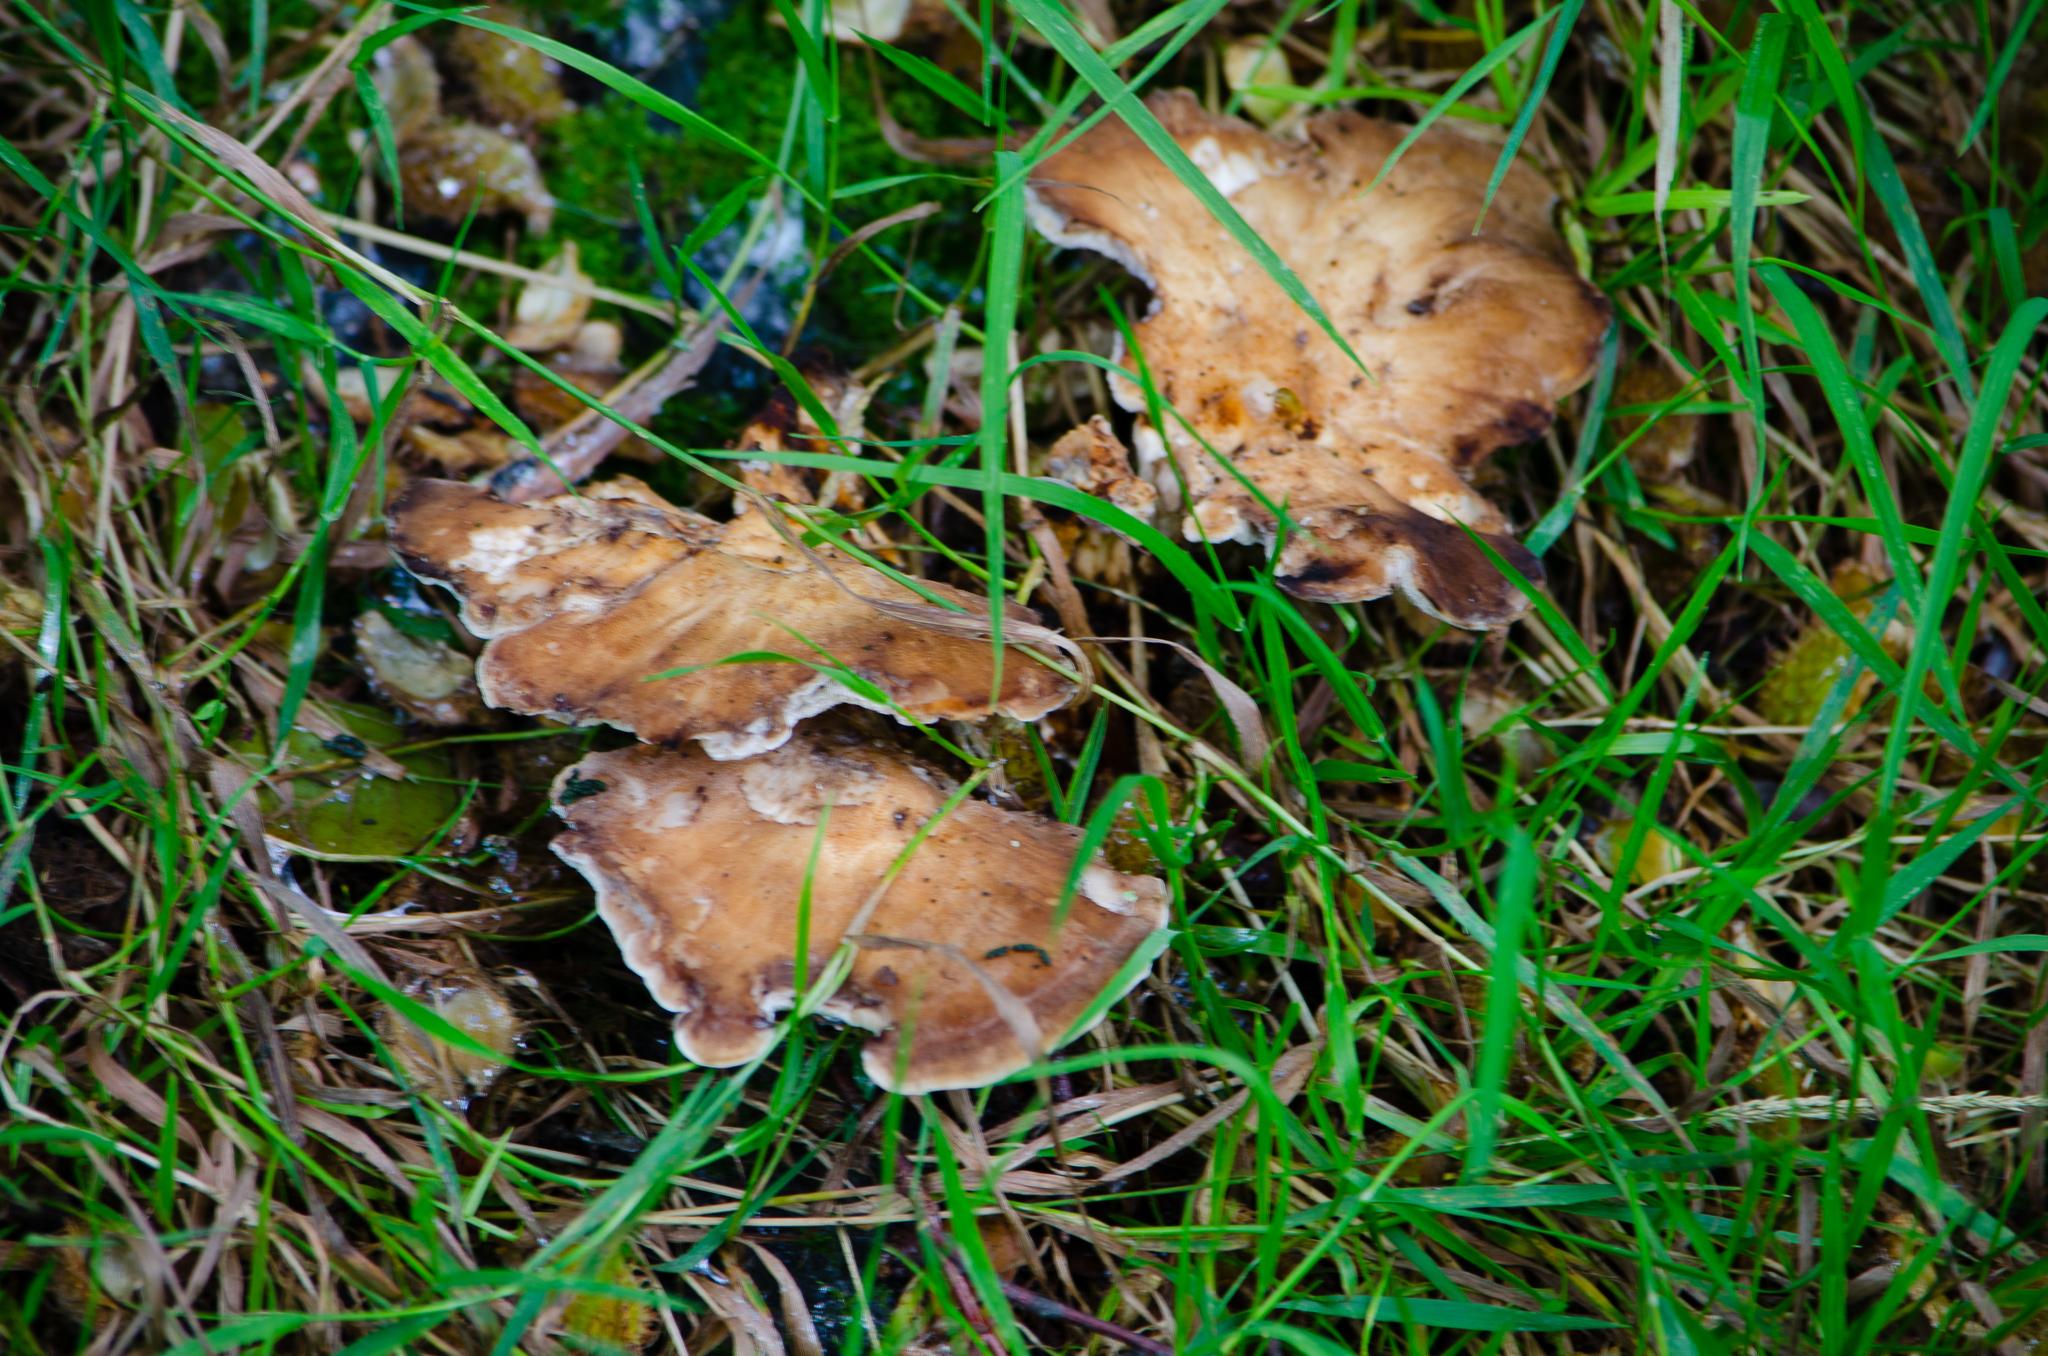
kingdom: Fungi
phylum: Basidiomycota
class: Agaricomycetes
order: Polyporales
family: Meripilaceae
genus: Meripilus
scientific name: Meripilus giganteus
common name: Giant polypore
